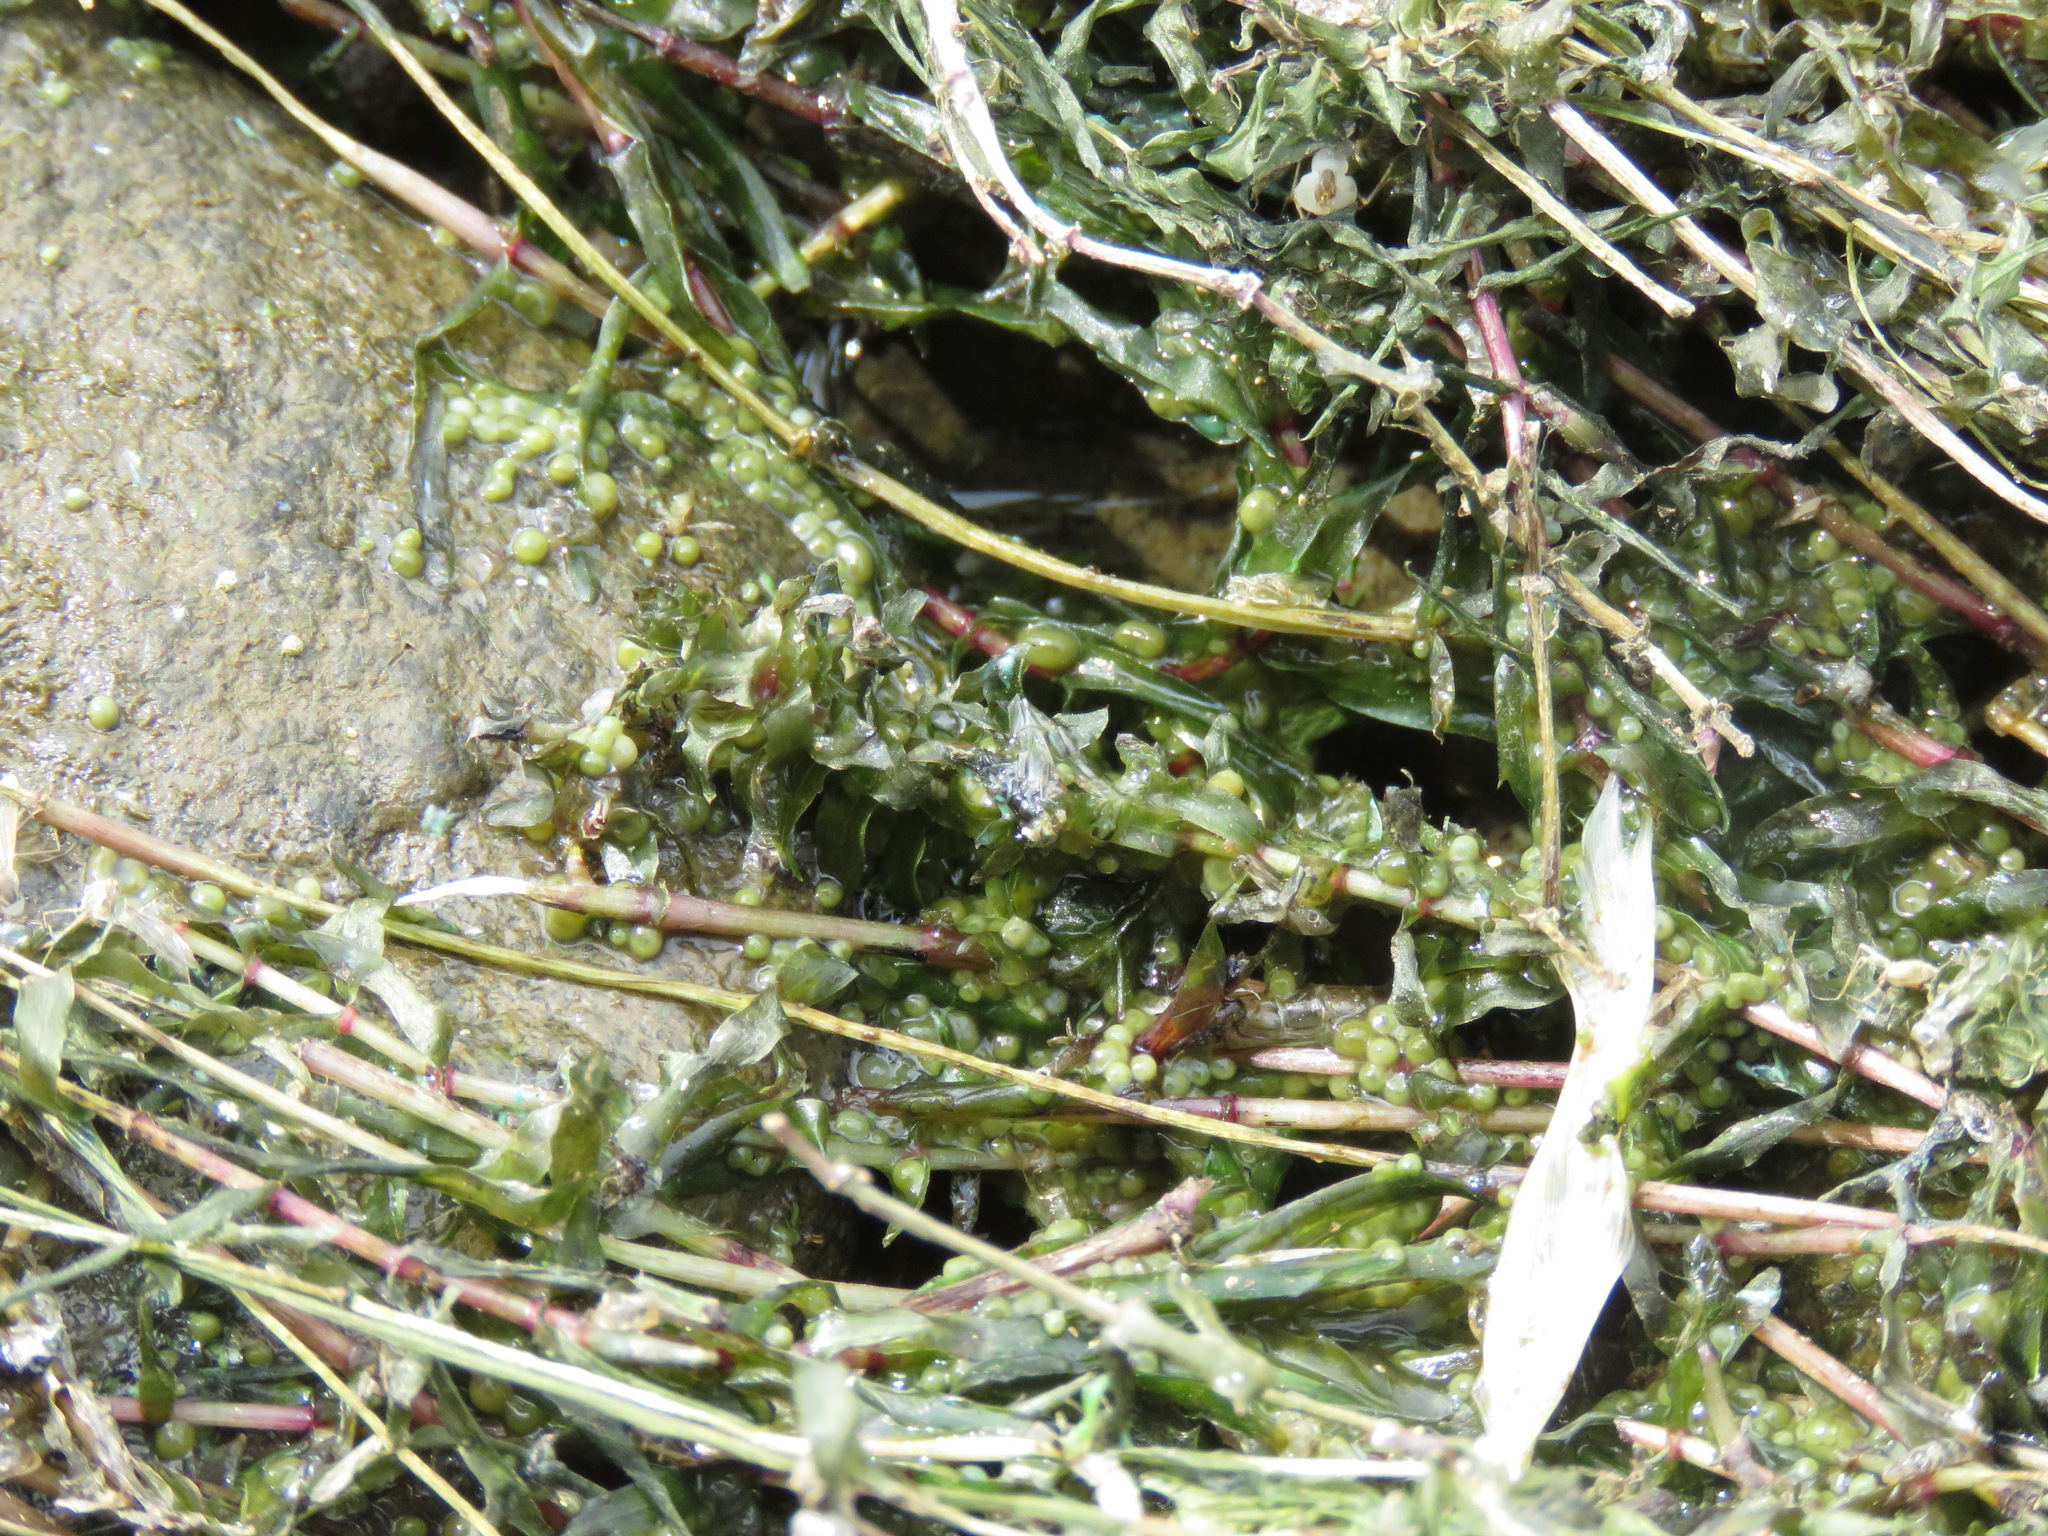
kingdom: Plantae
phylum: Tracheophyta
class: Liliopsida
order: Alismatales
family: Hydrocharitaceae
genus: Elodea
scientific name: Elodea canadensis
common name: Canadian waterweed
